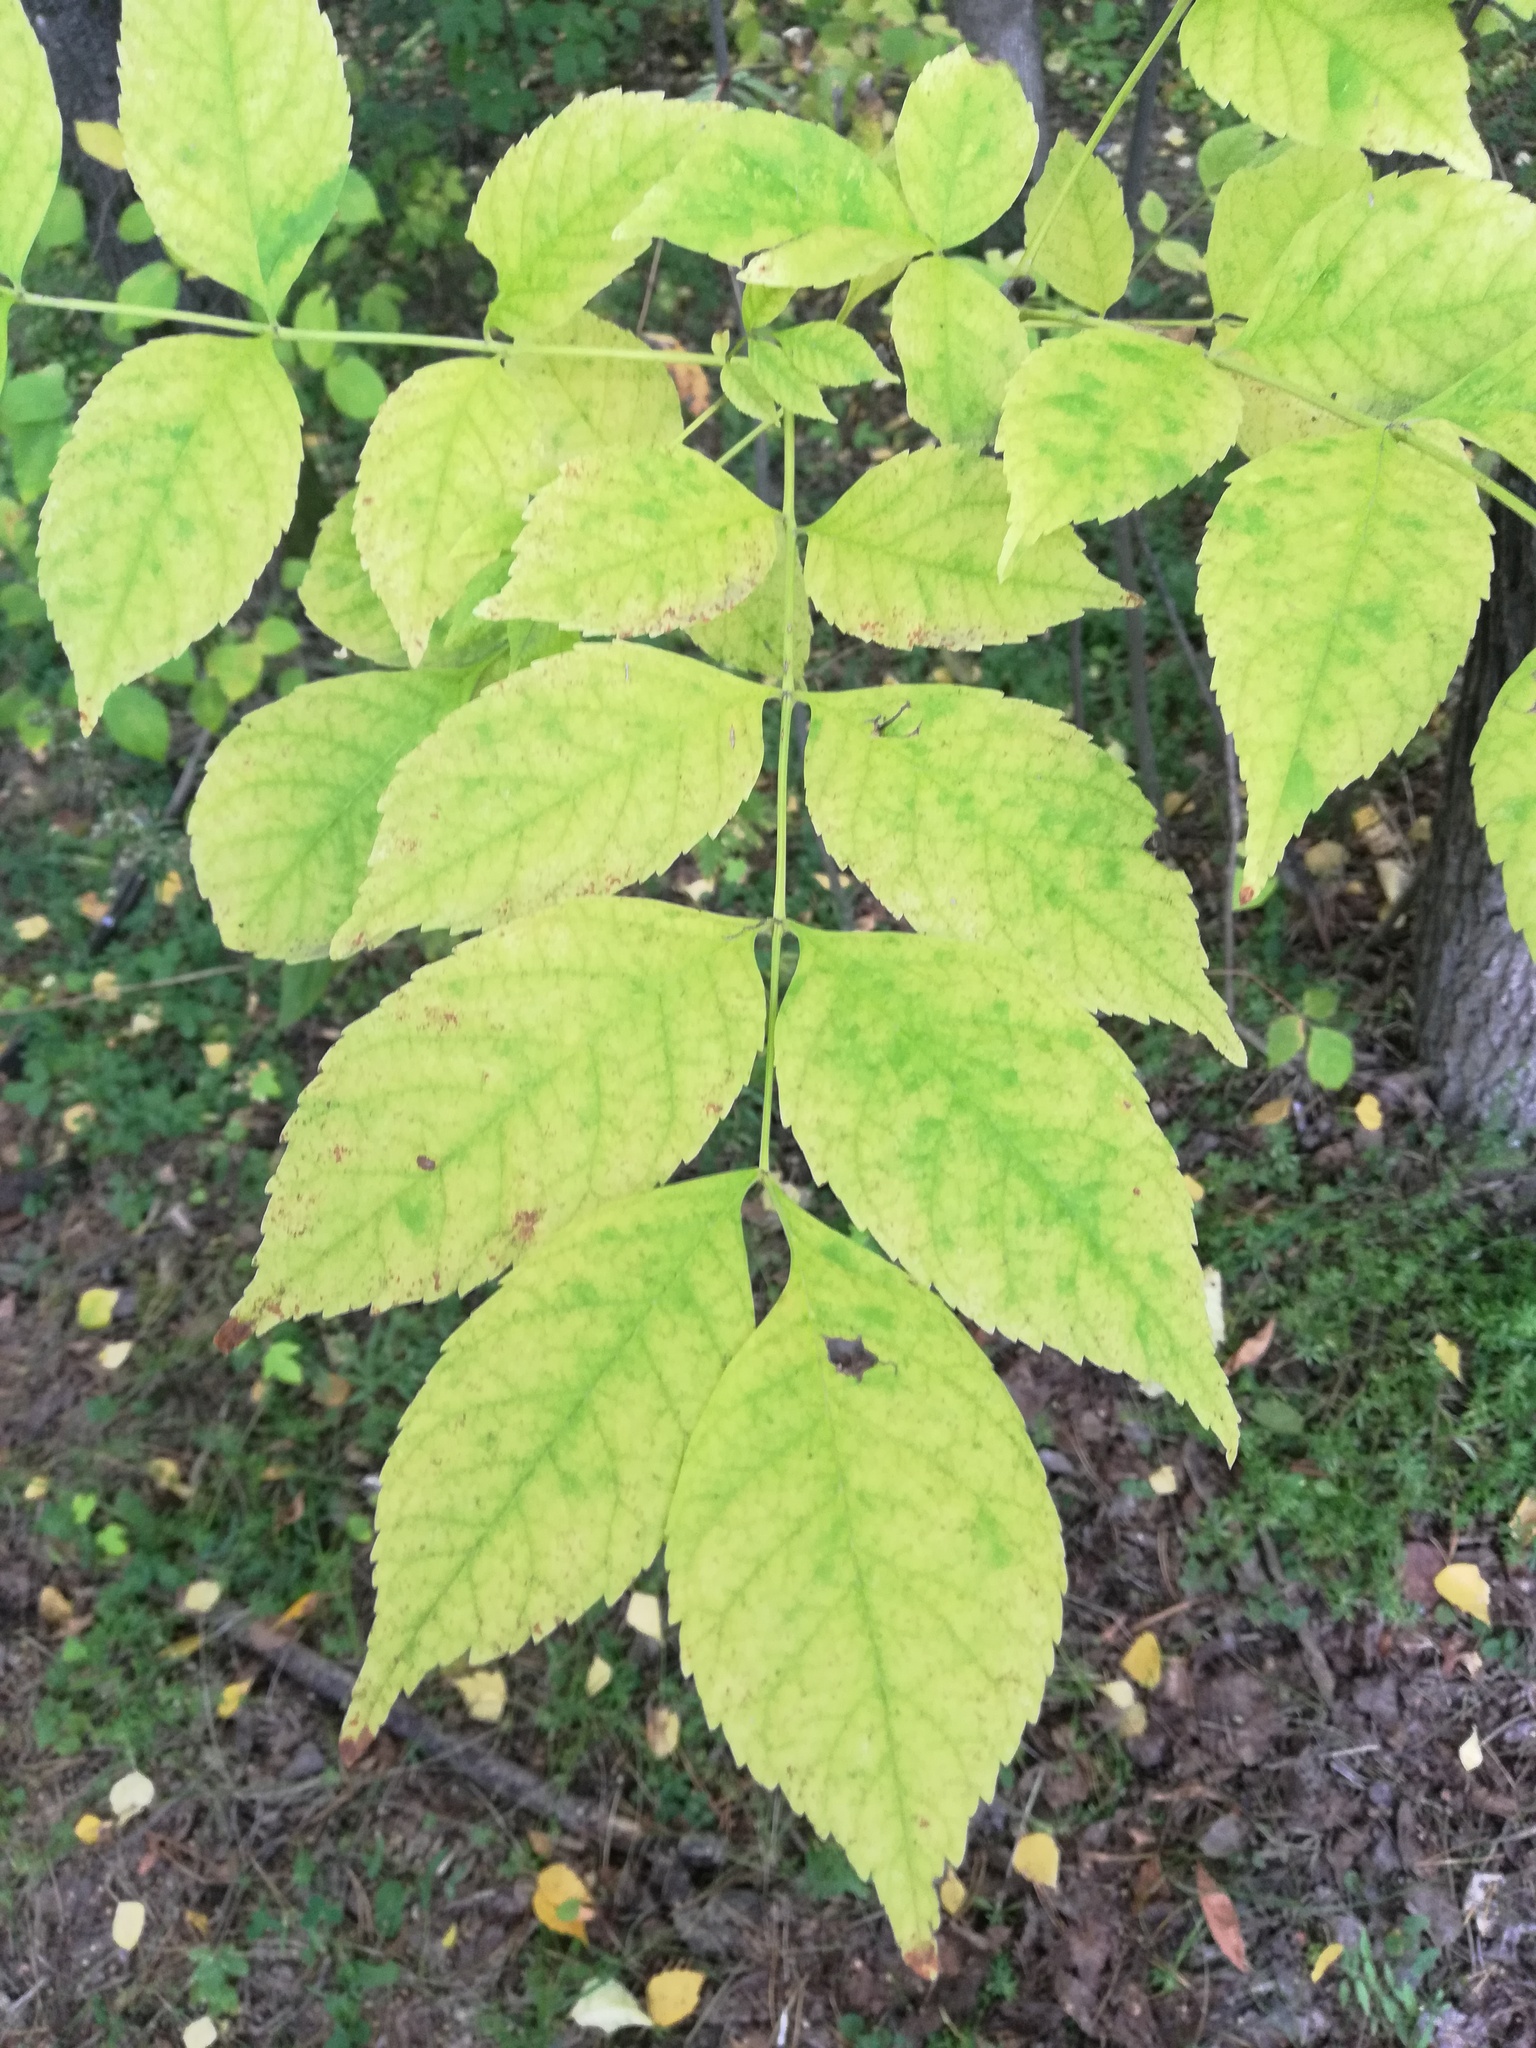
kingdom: Plantae
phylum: Tracheophyta
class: Magnoliopsida
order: Lamiales
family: Oleaceae
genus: Fraxinus
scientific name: Fraxinus pennsylvanica
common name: Green ash
